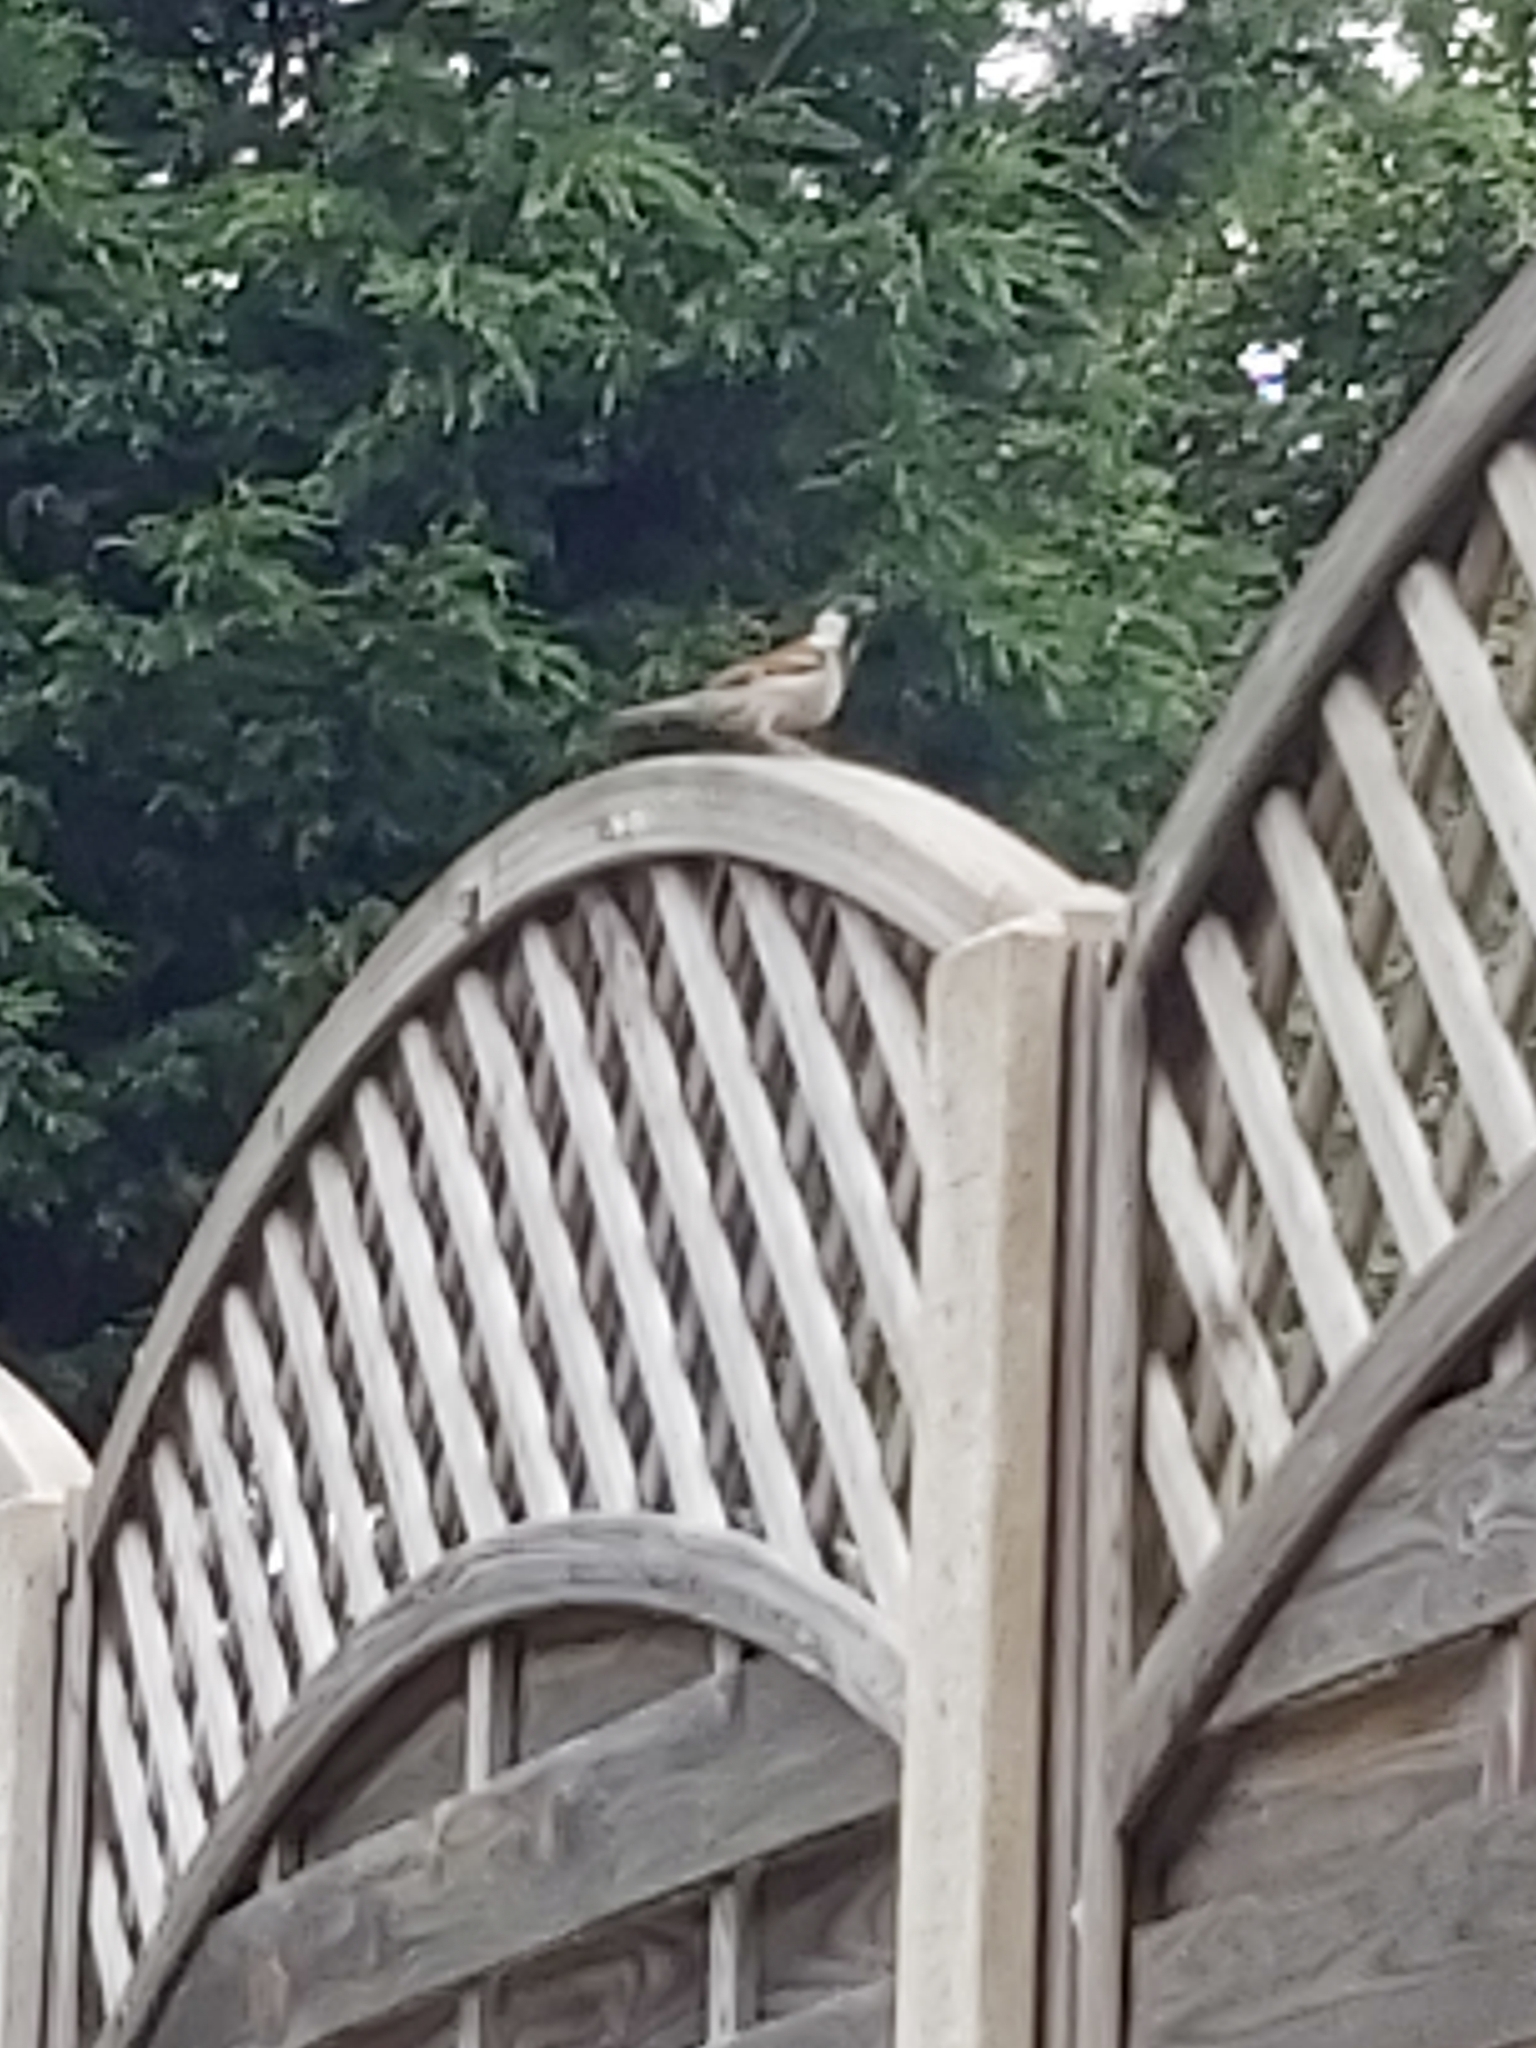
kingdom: Animalia
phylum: Chordata
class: Aves
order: Passeriformes
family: Passeridae
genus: Passer
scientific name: Passer domesticus
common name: House sparrow
